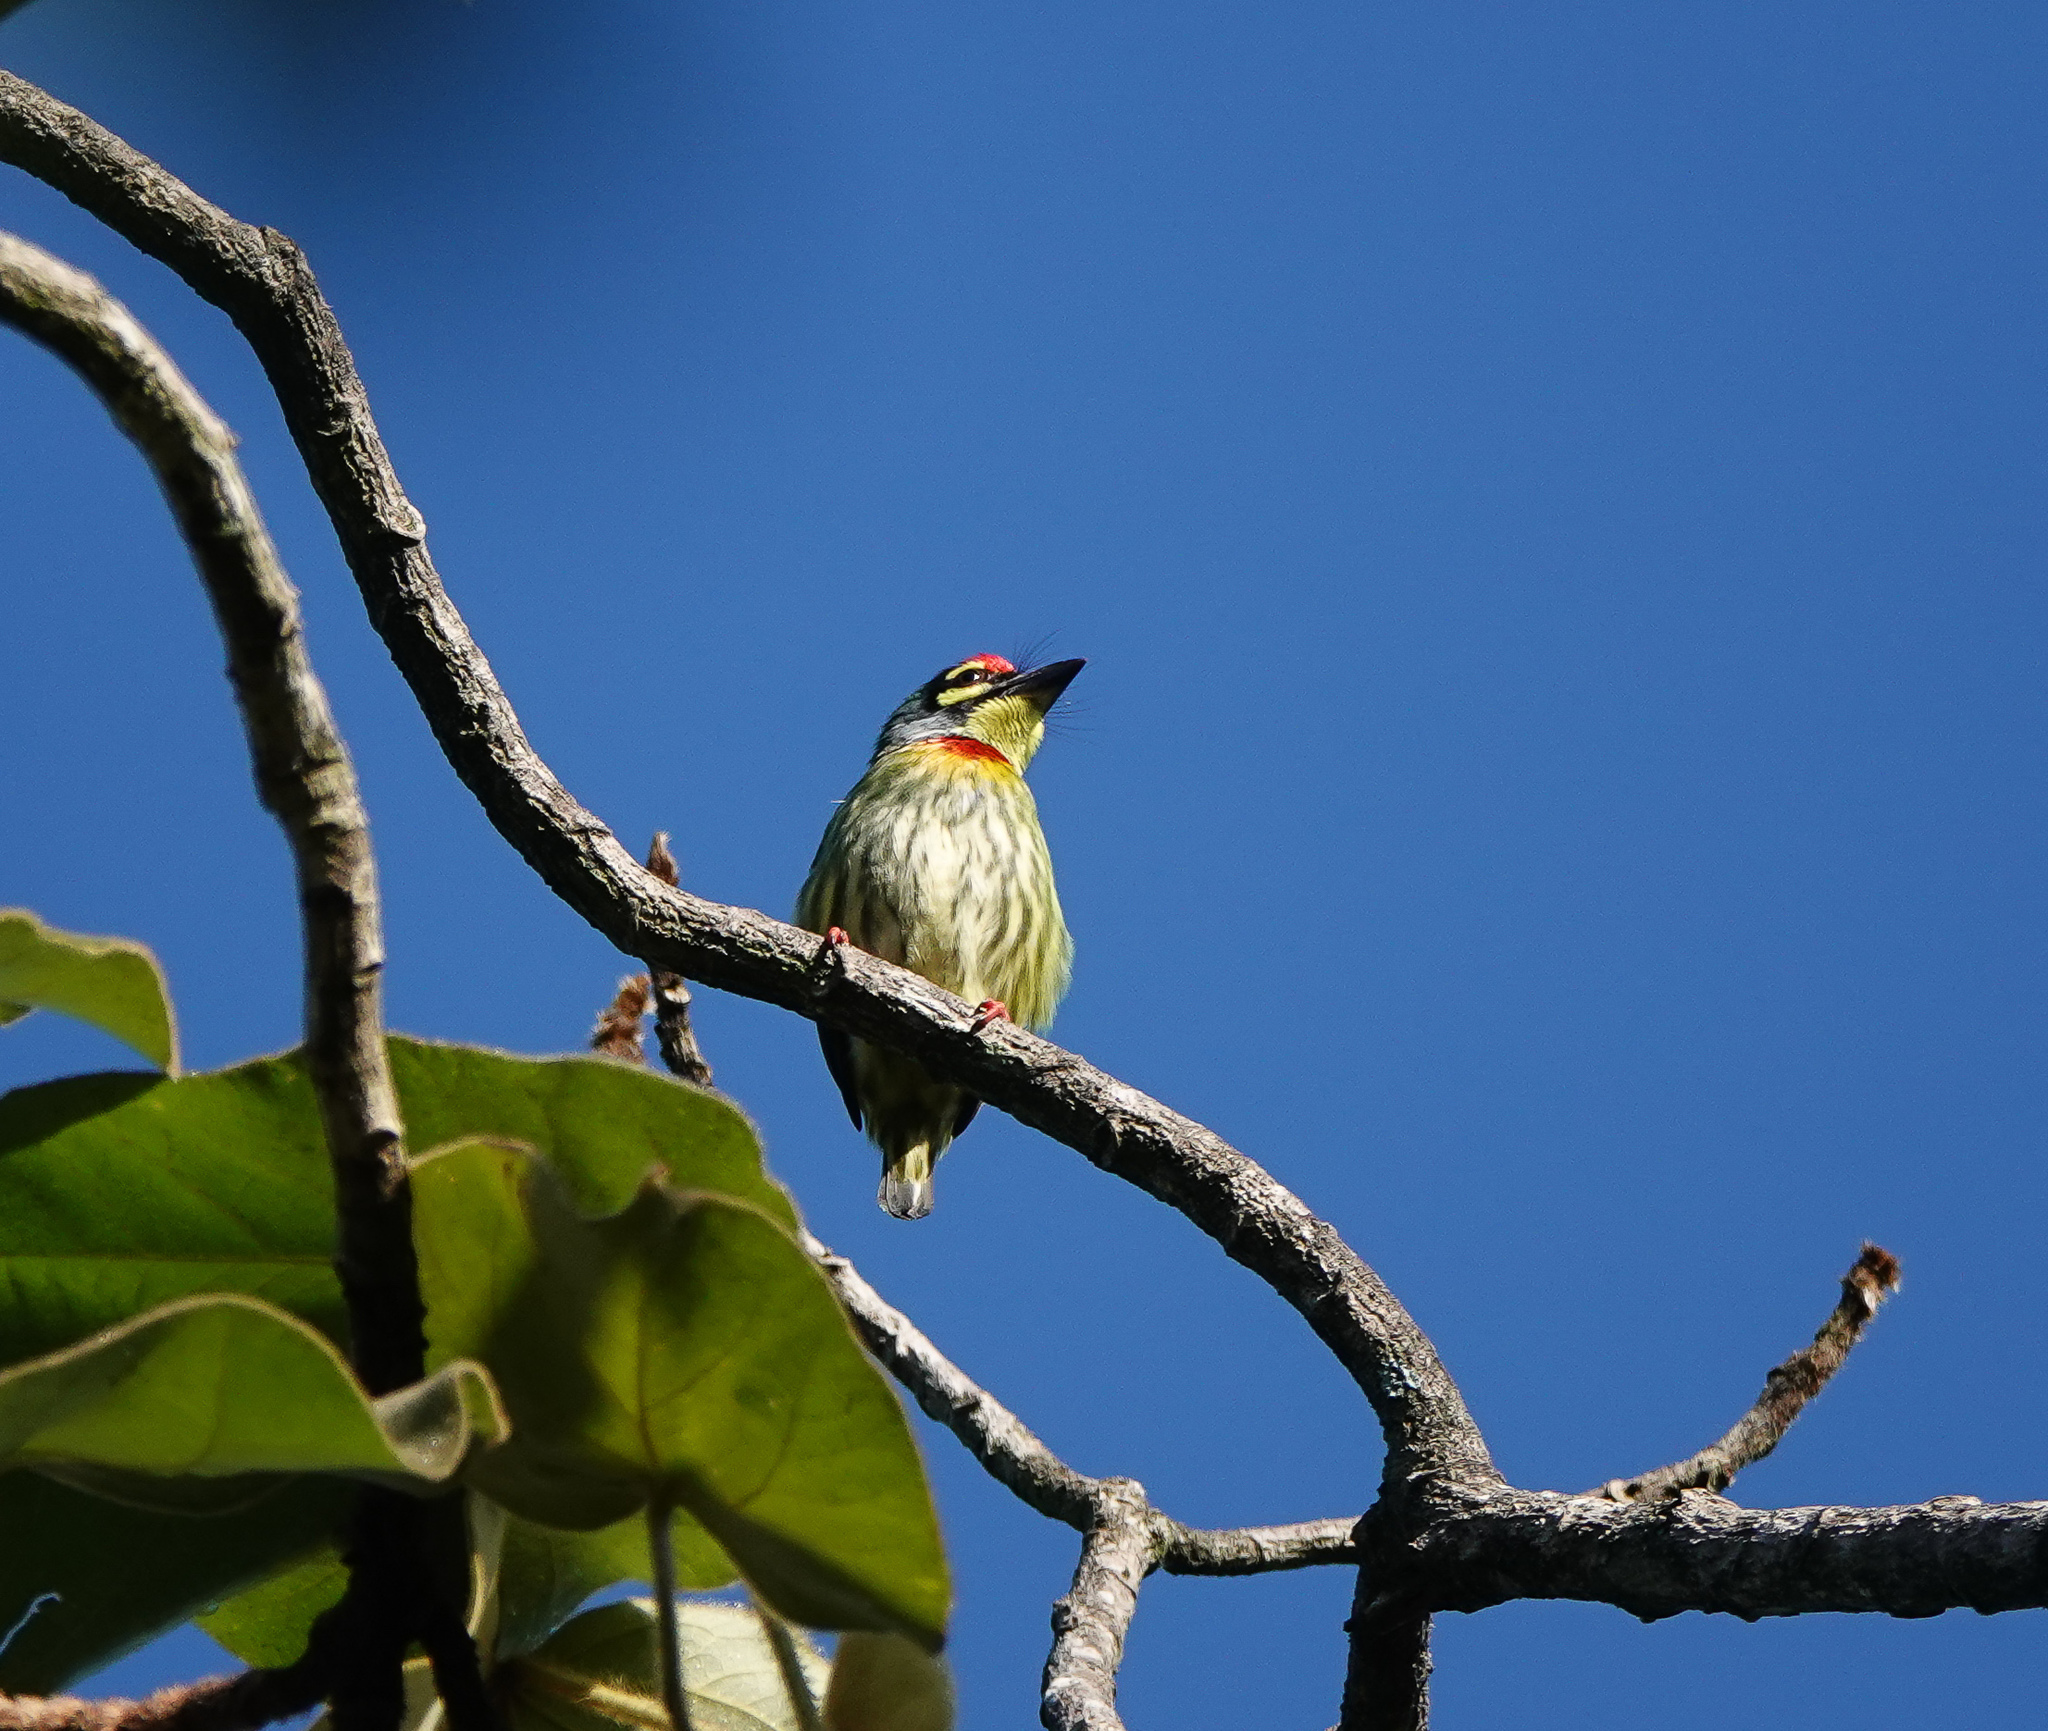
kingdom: Animalia
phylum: Chordata
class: Aves
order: Piciformes
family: Megalaimidae
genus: Psilopogon
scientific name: Psilopogon haemacephalus
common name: Coppersmith barbet
